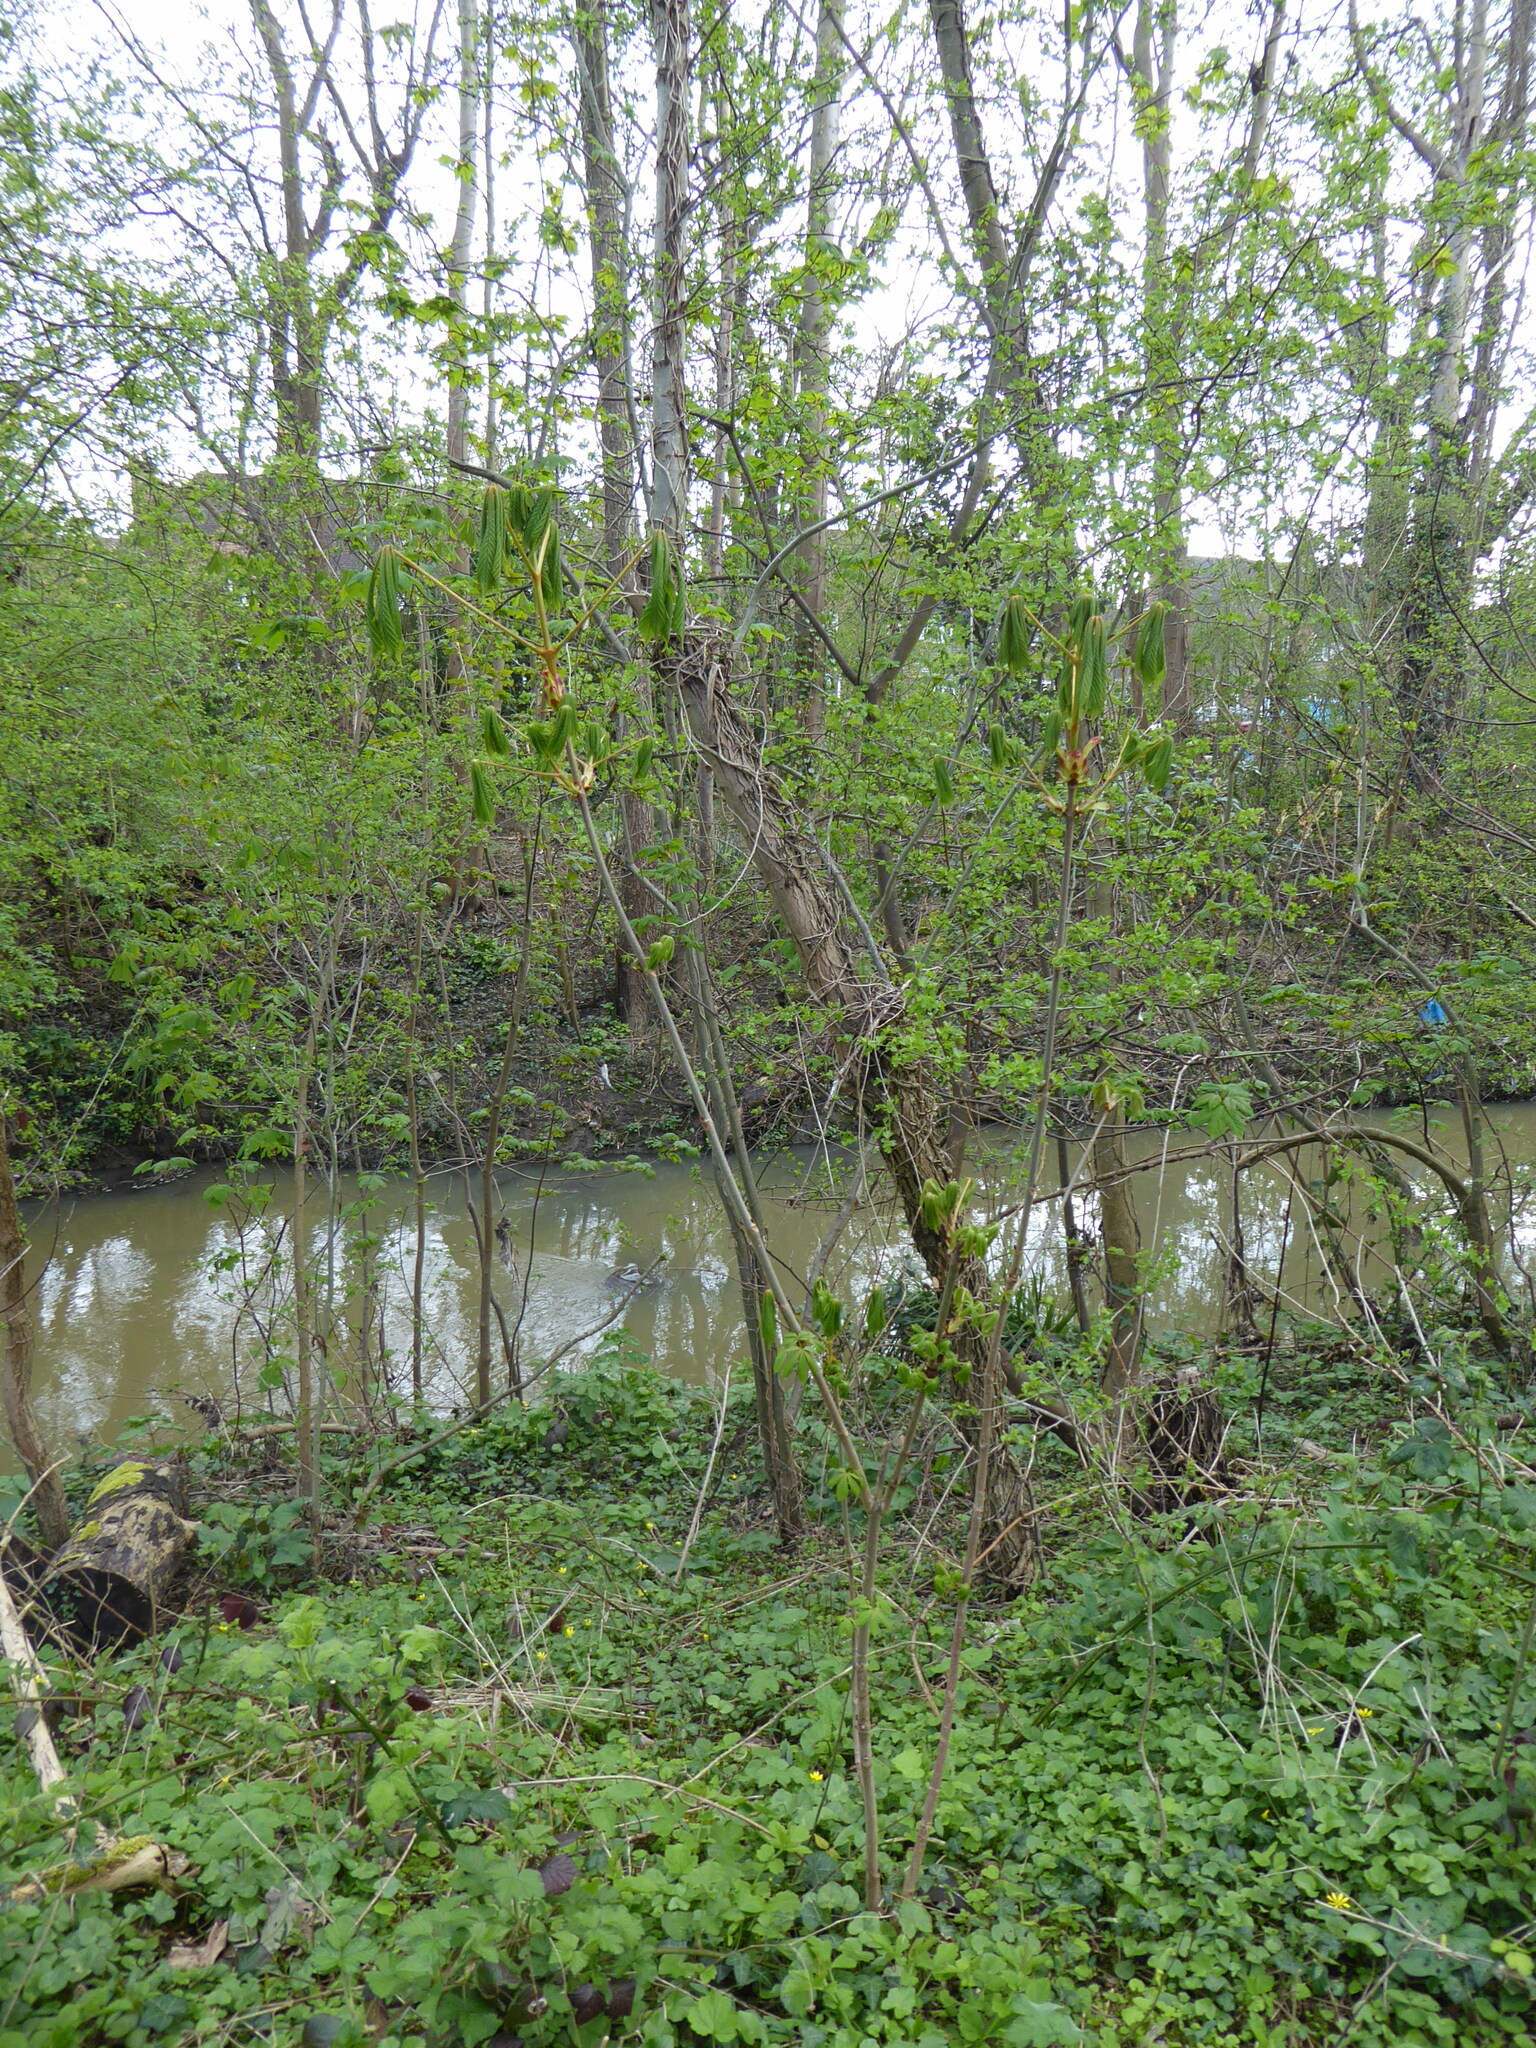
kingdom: Plantae
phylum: Tracheophyta
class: Magnoliopsida
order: Sapindales
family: Sapindaceae
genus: Aesculus
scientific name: Aesculus hippocastanum
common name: Horse-chestnut
